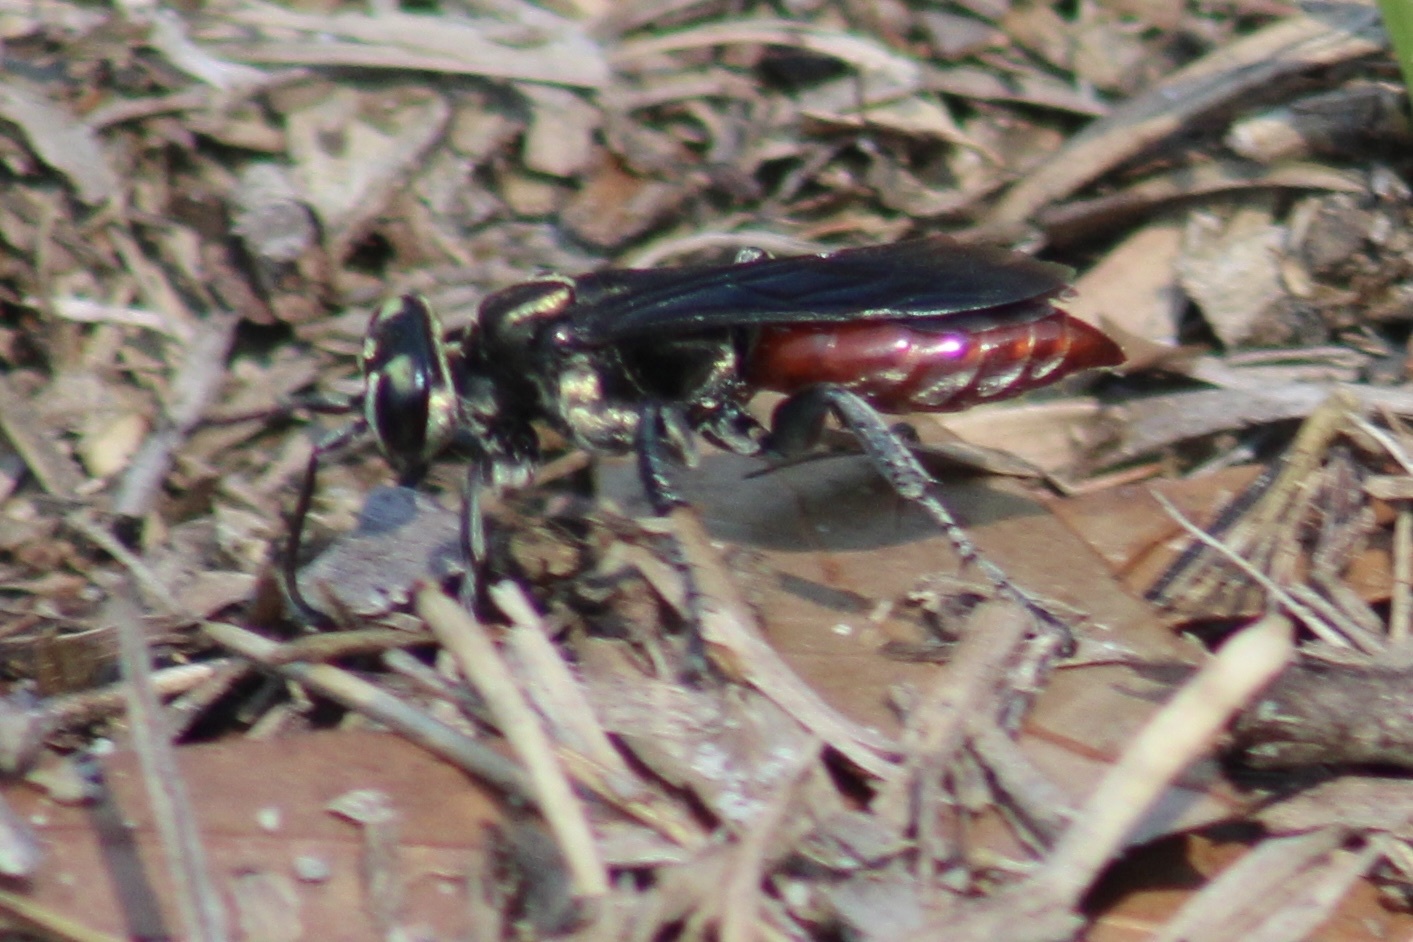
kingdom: Animalia
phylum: Arthropoda
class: Insecta
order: Hymenoptera
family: Crabronidae
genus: Larra
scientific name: Larra bicolor
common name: Wasp
